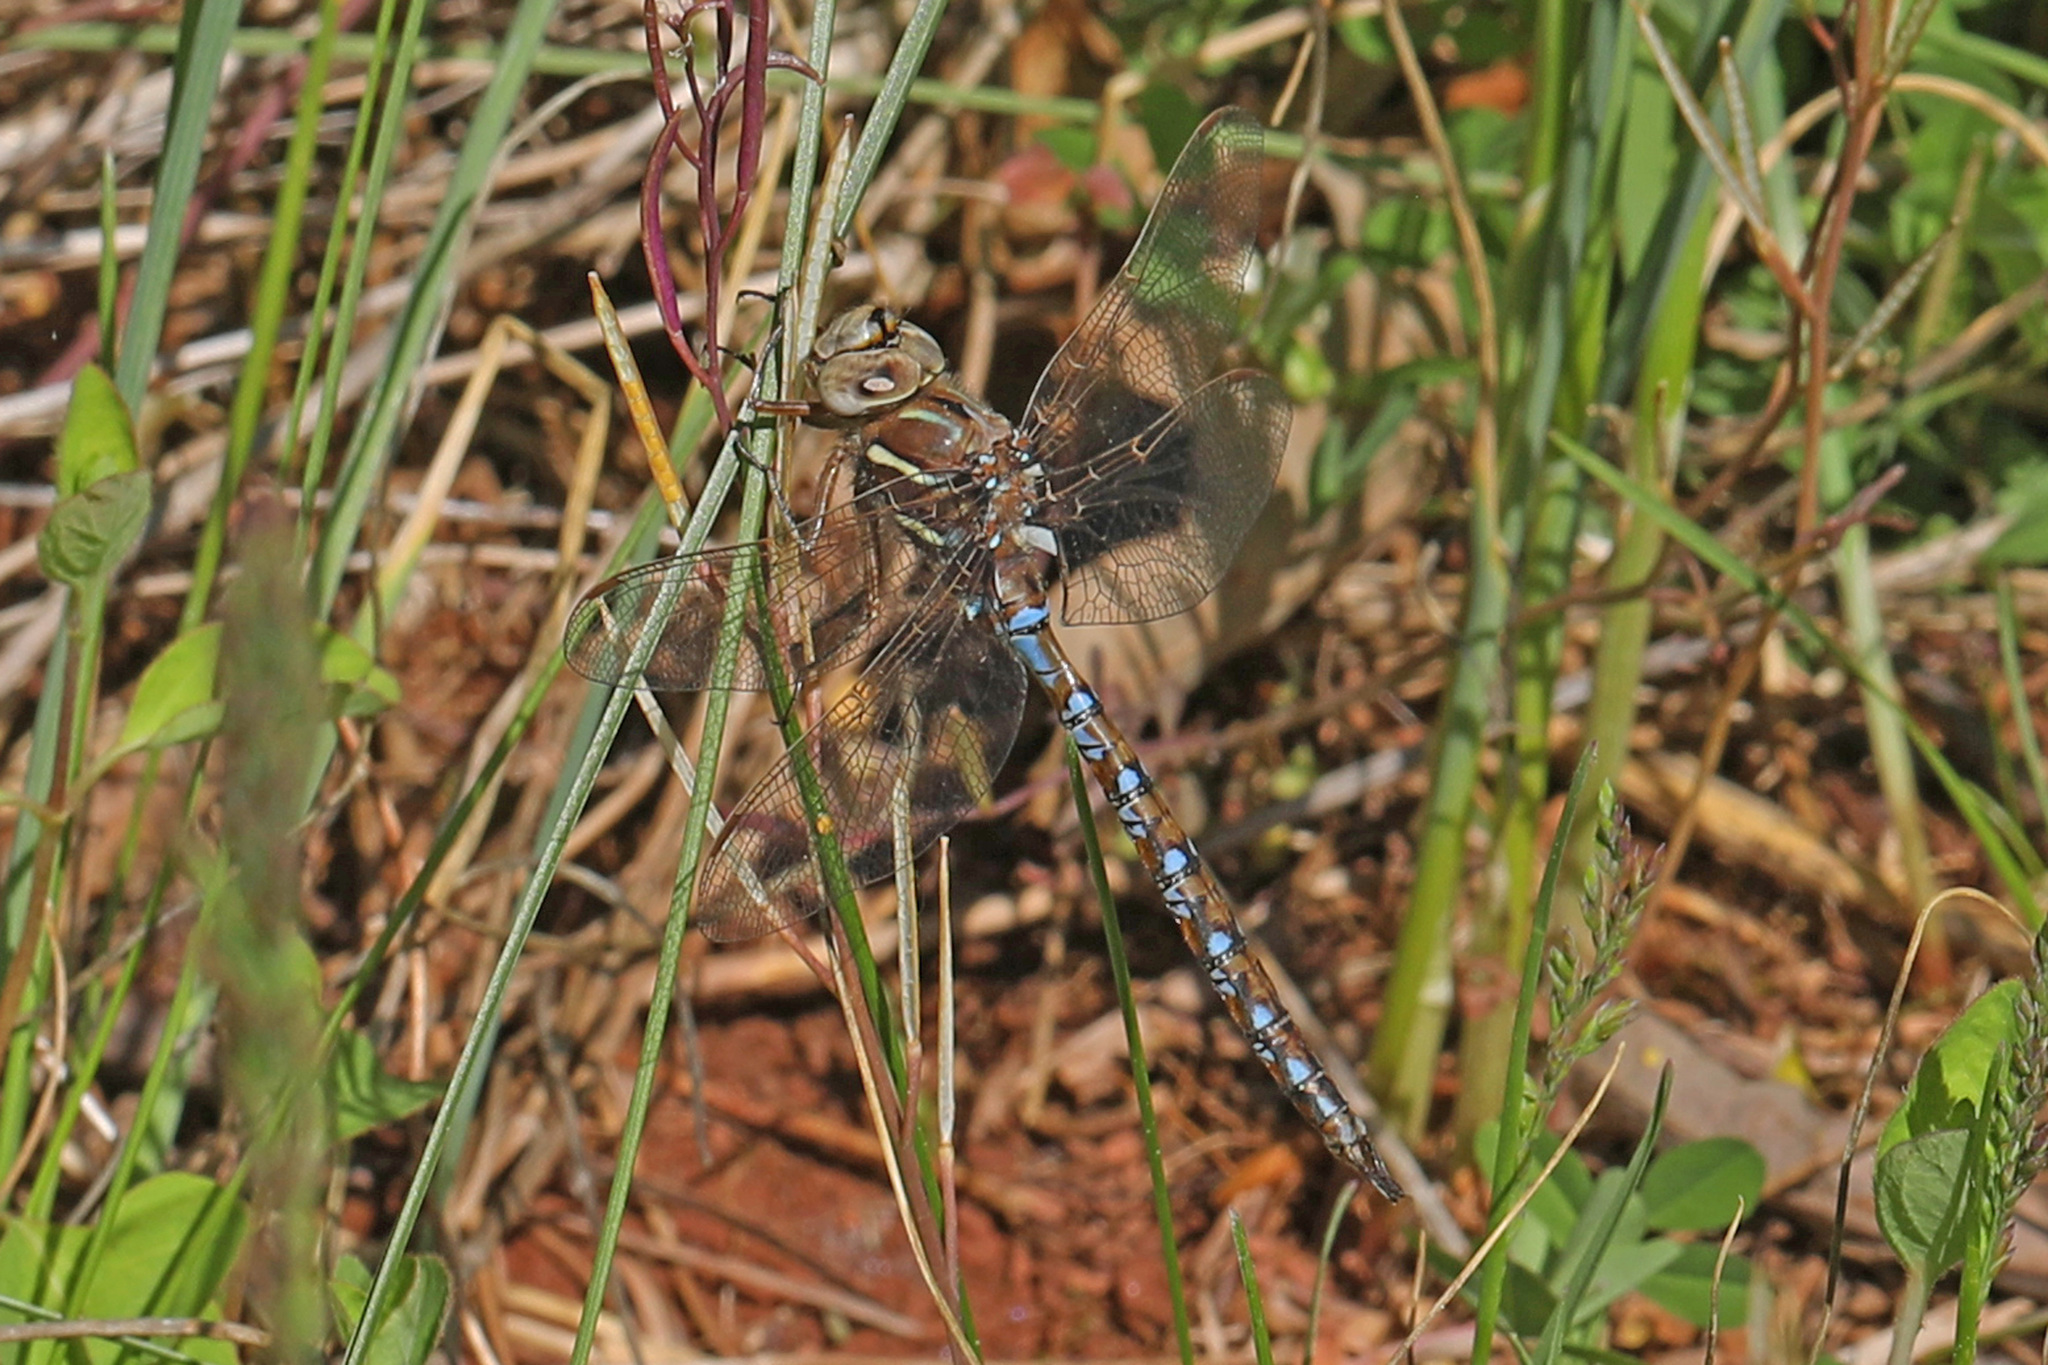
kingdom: Animalia
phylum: Arthropoda
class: Insecta
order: Odonata
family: Aeshnidae
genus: Basiaeschna
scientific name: Basiaeschna janata
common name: Springtime darner
